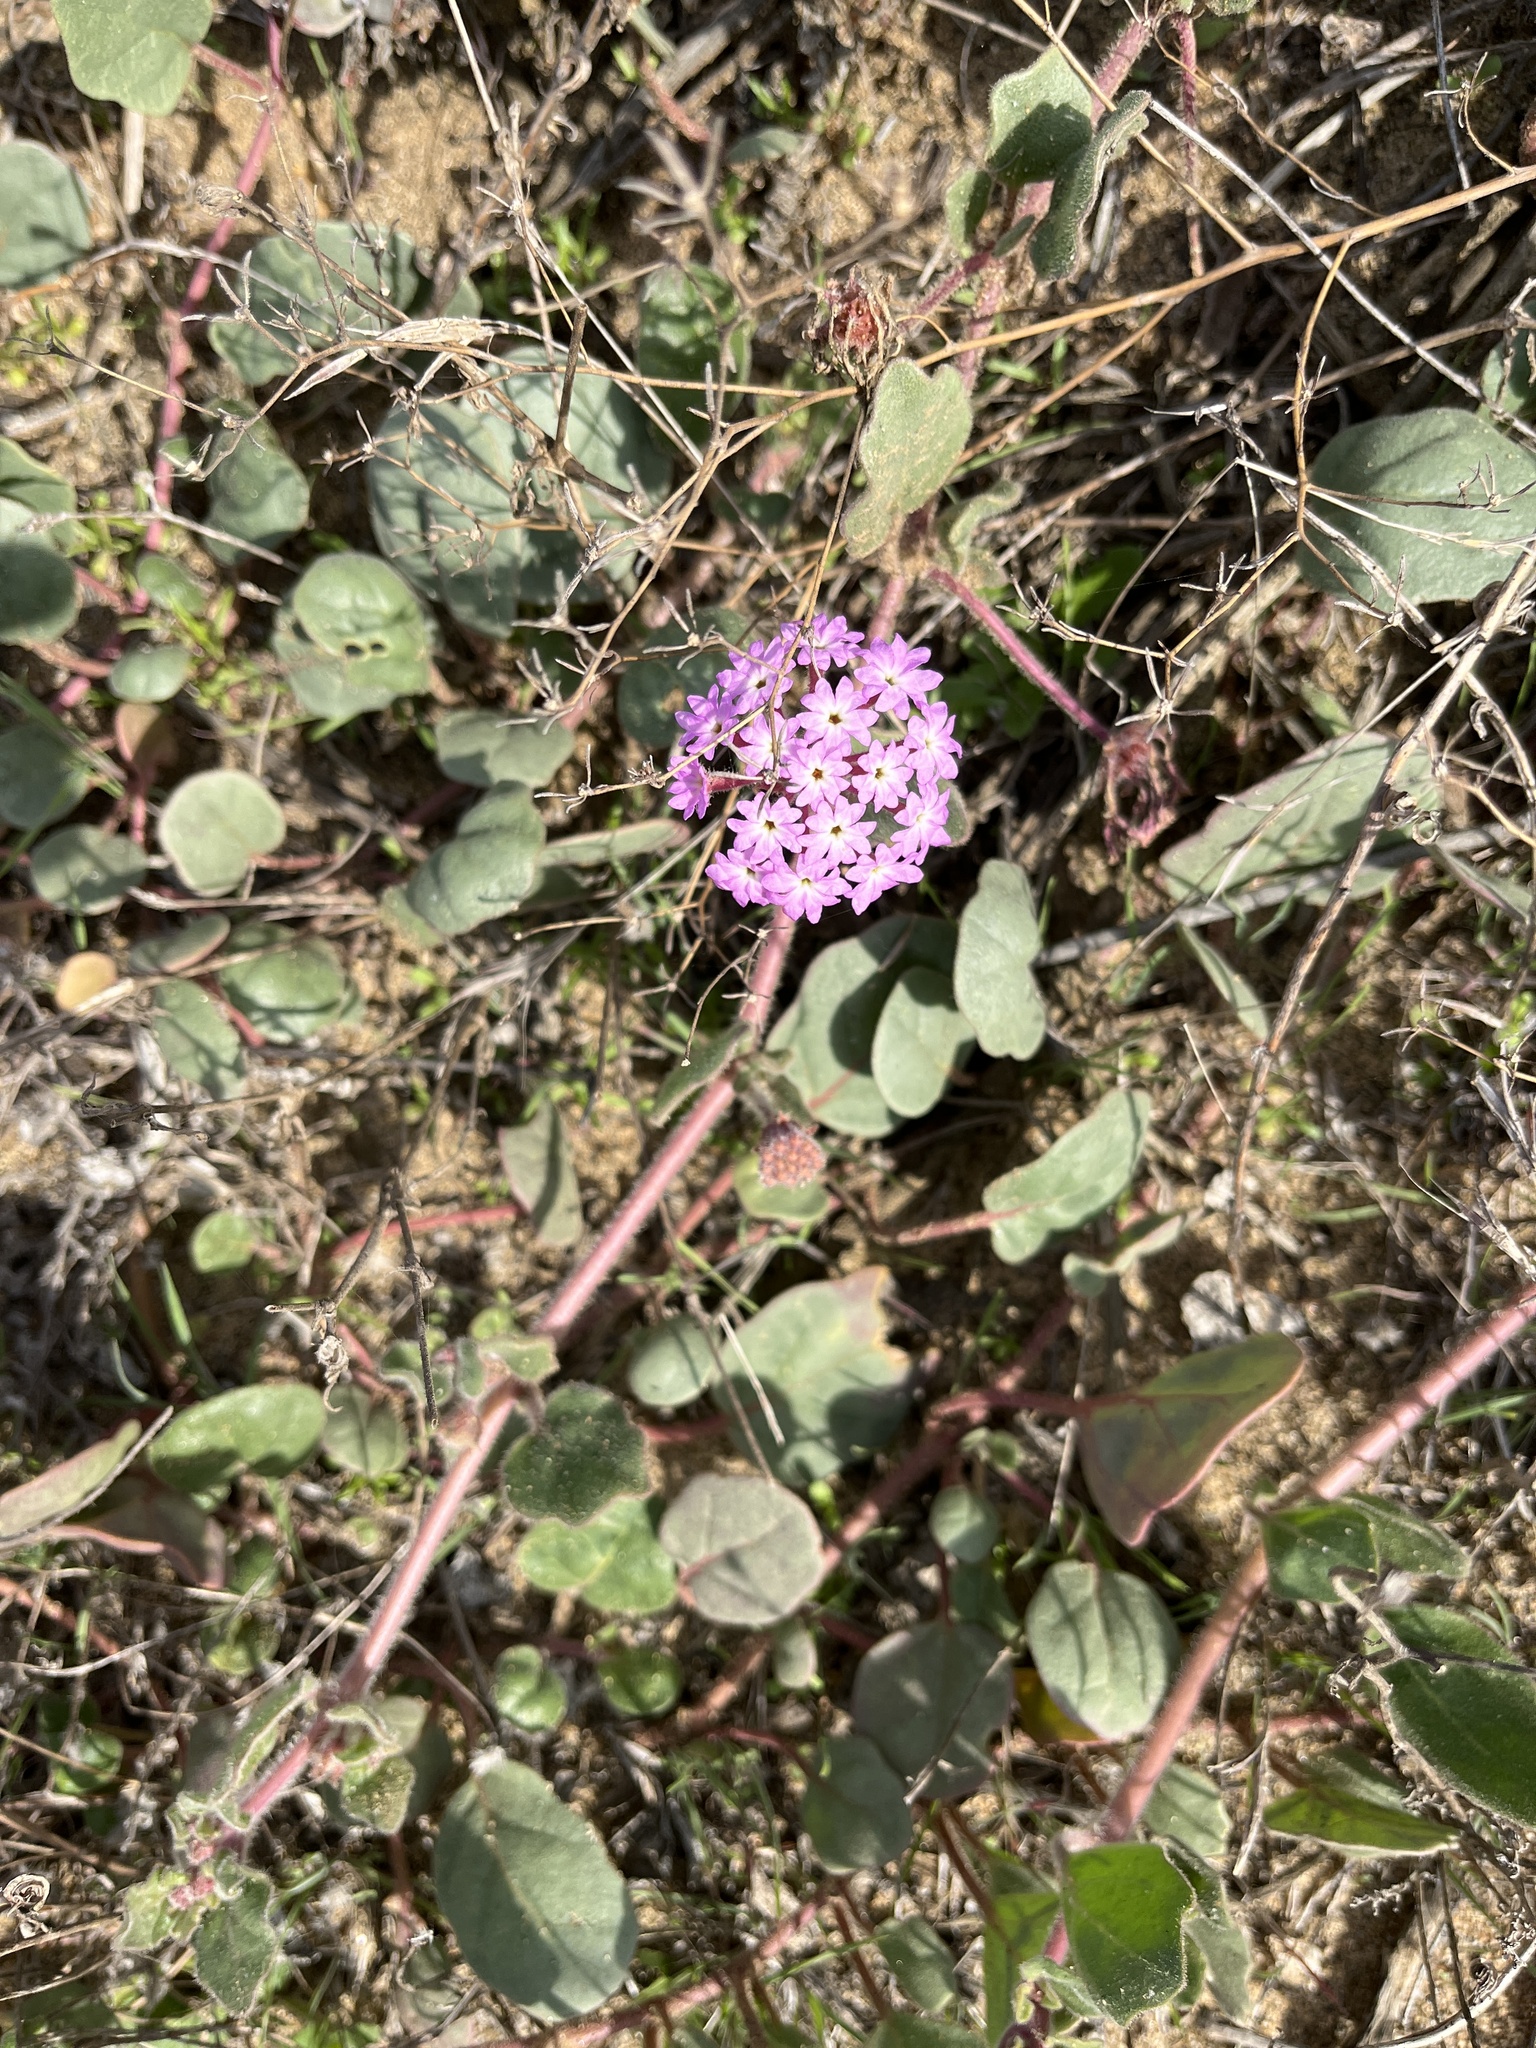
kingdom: Plantae
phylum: Tracheophyta
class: Magnoliopsida
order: Caryophyllales
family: Nyctaginaceae
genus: Abronia
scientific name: Abronia umbellata
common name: Sand-verbena
